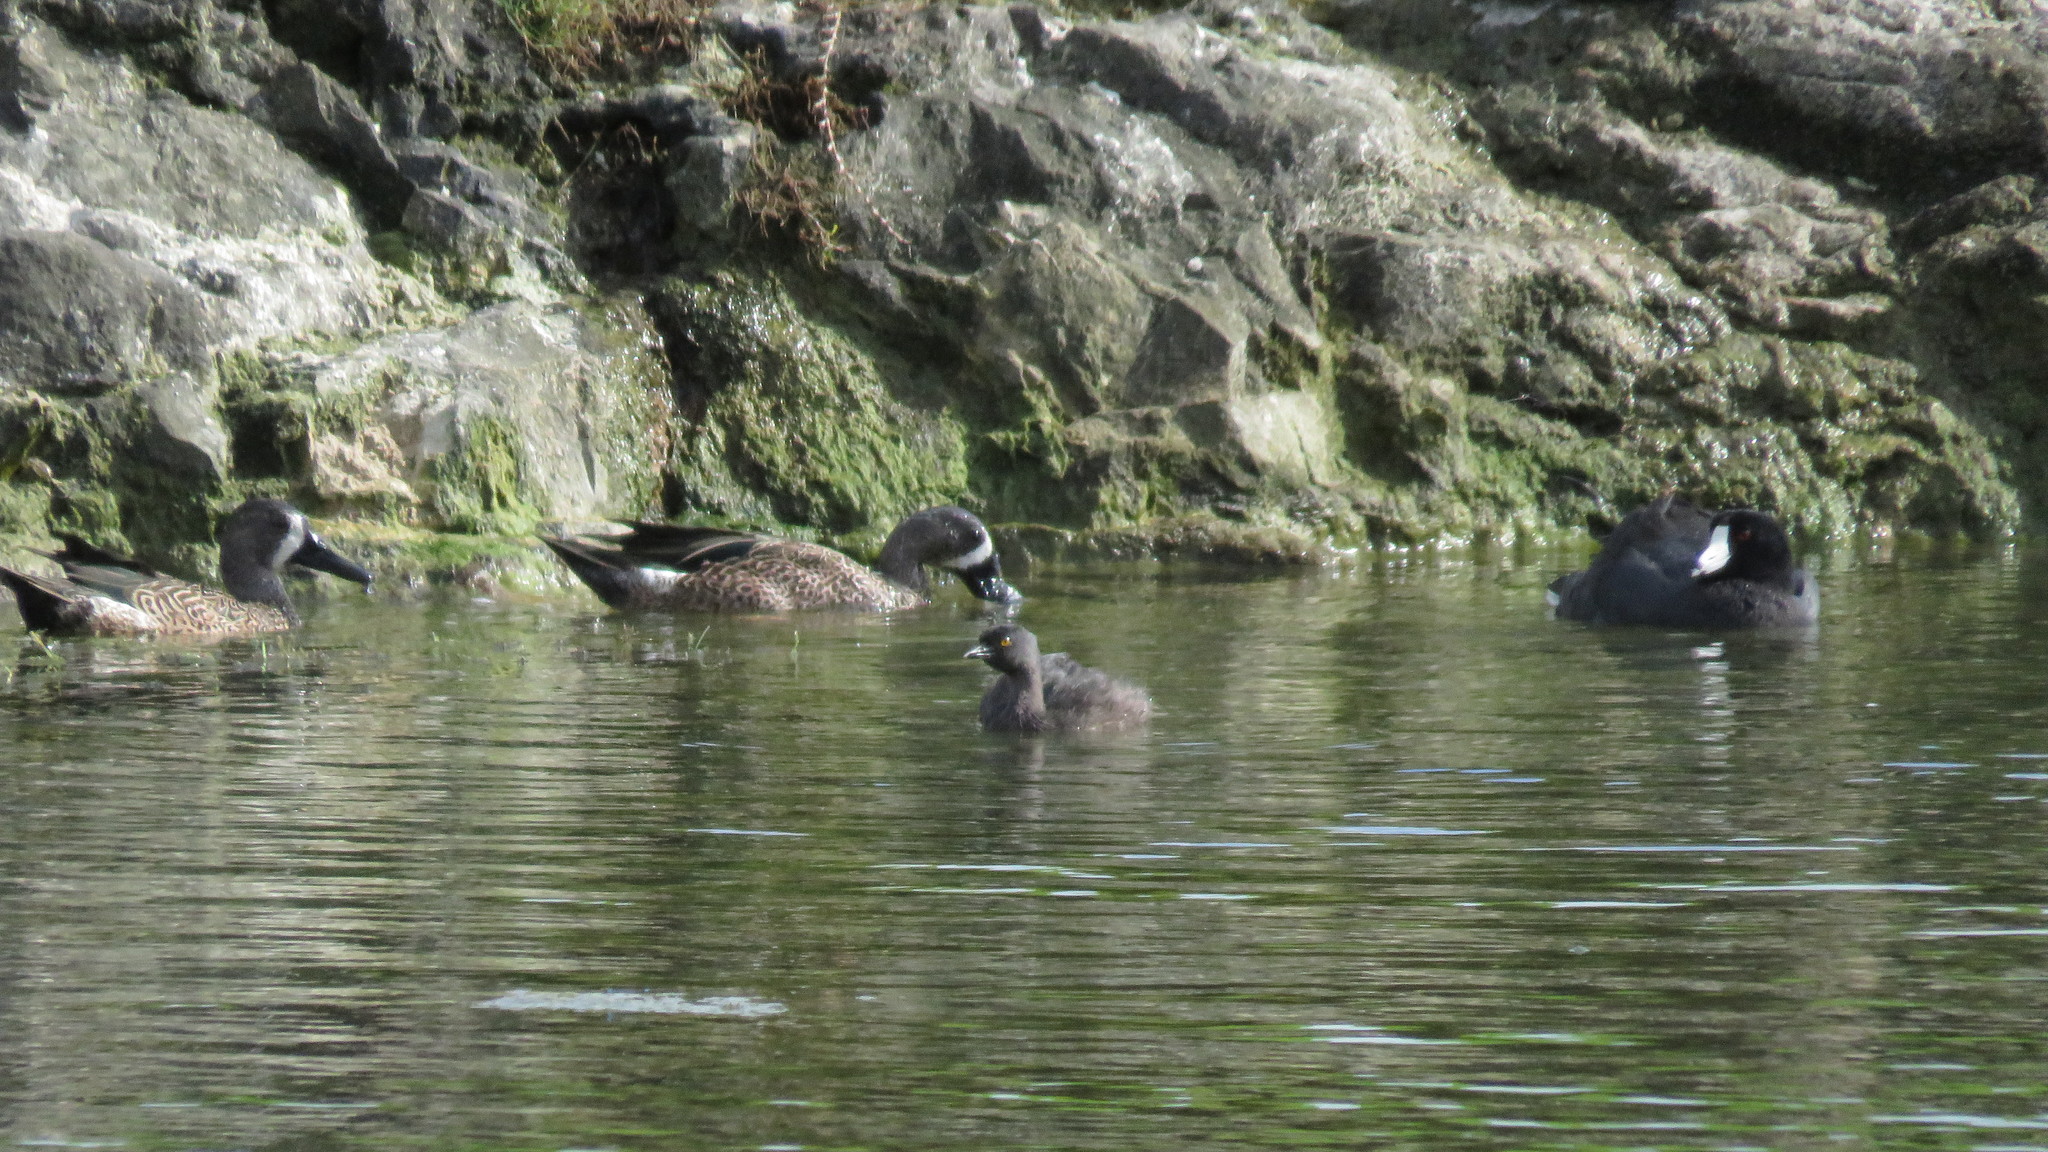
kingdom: Animalia
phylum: Chordata
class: Aves
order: Anseriformes
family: Anatidae
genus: Spatula
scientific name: Spatula discors
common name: Blue-winged teal
